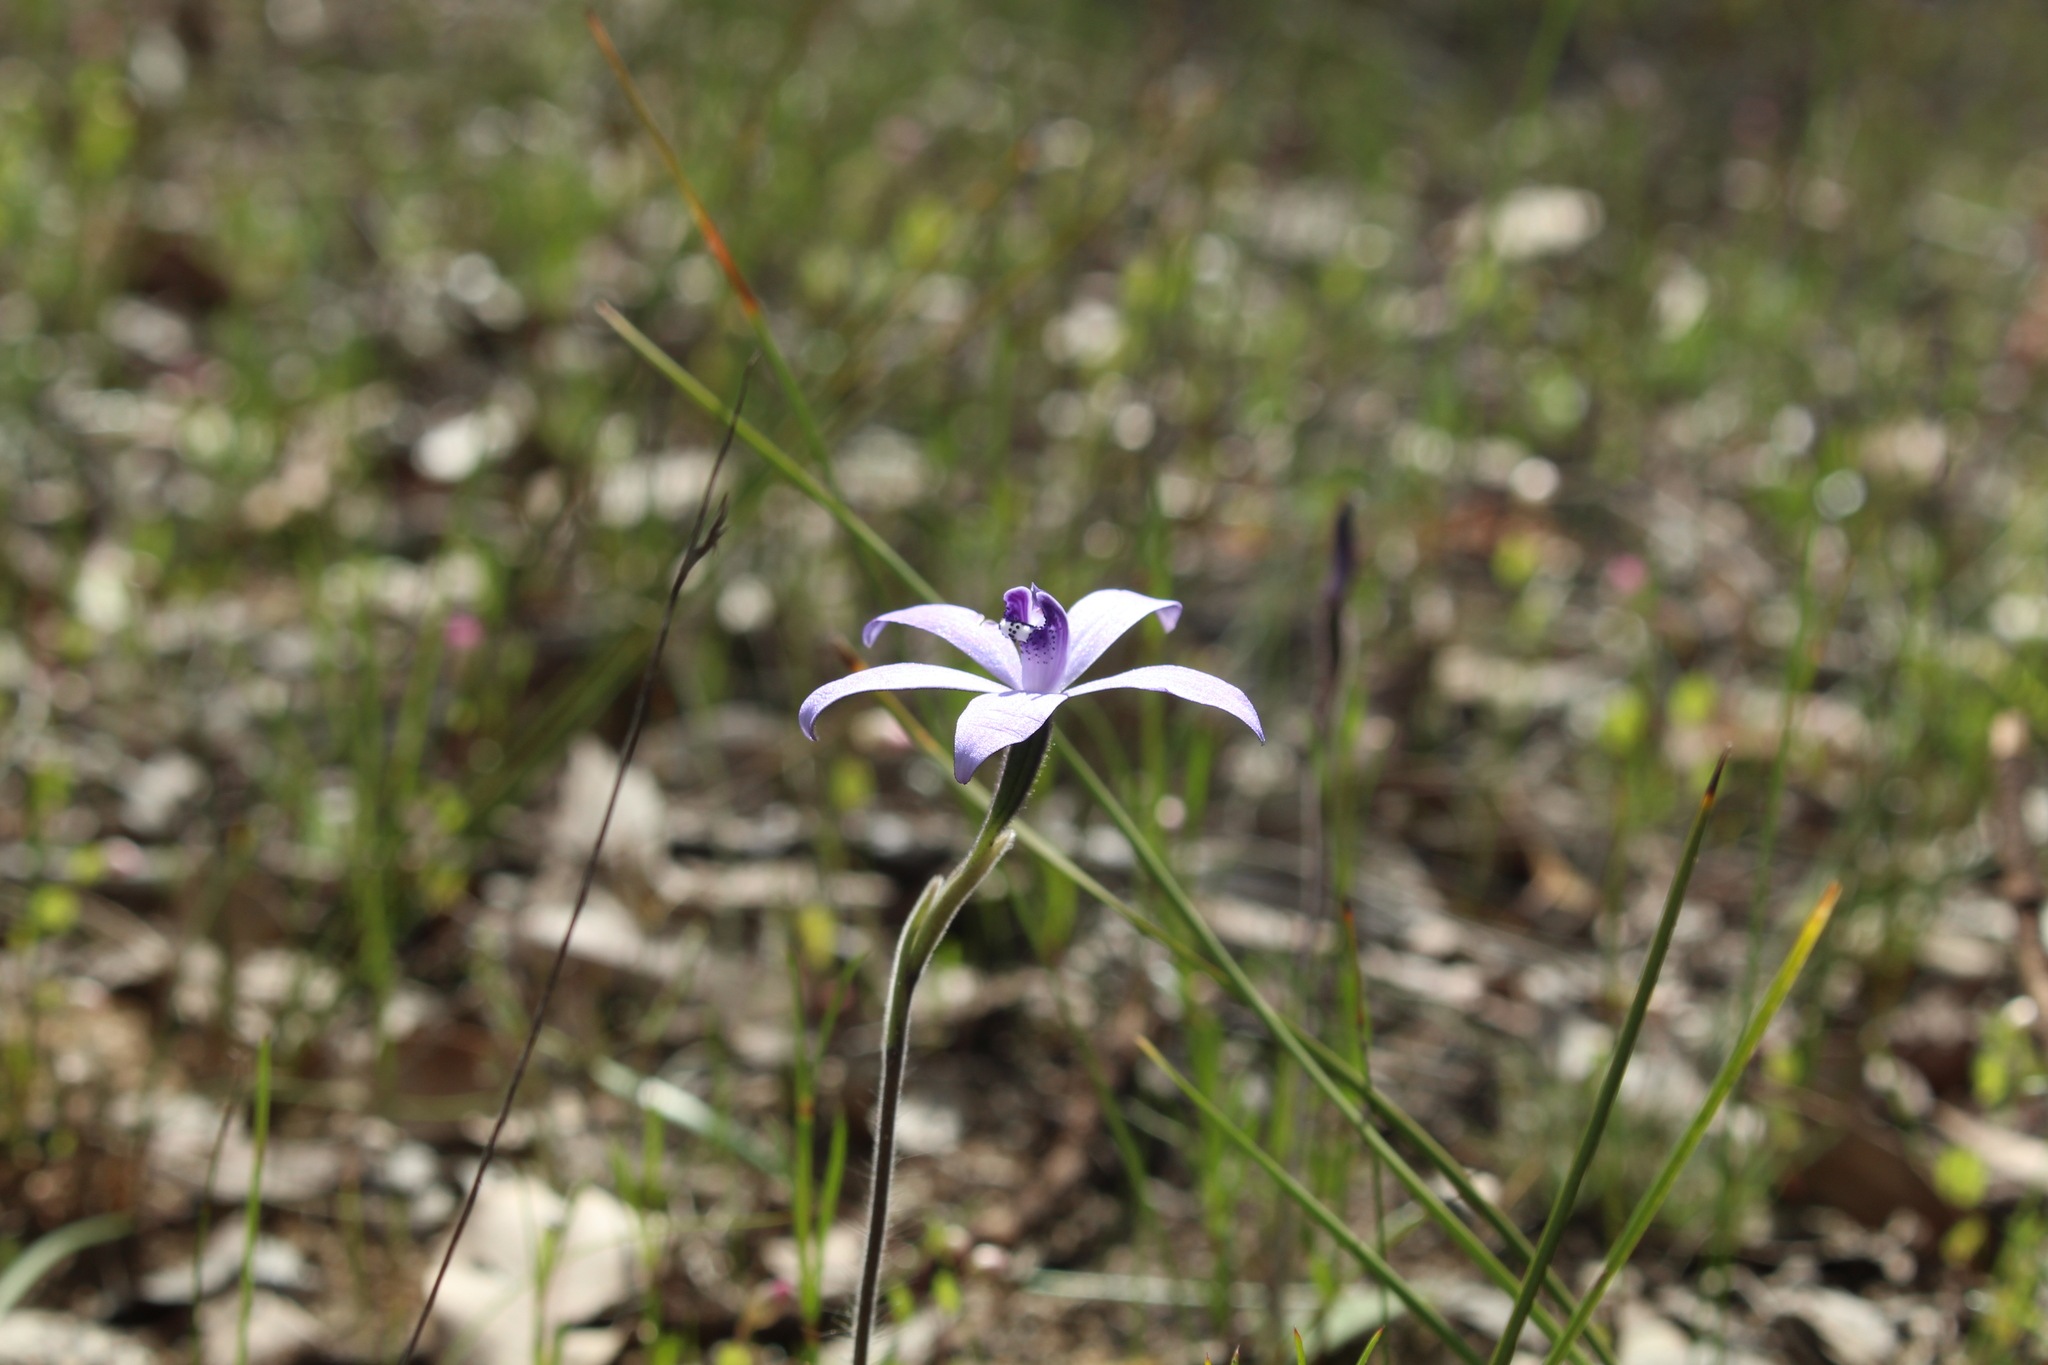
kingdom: Plantae
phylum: Tracheophyta
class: Liliopsida
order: Asparagales
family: Orchidaceae
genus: Caladenia
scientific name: Caladenia sericea
